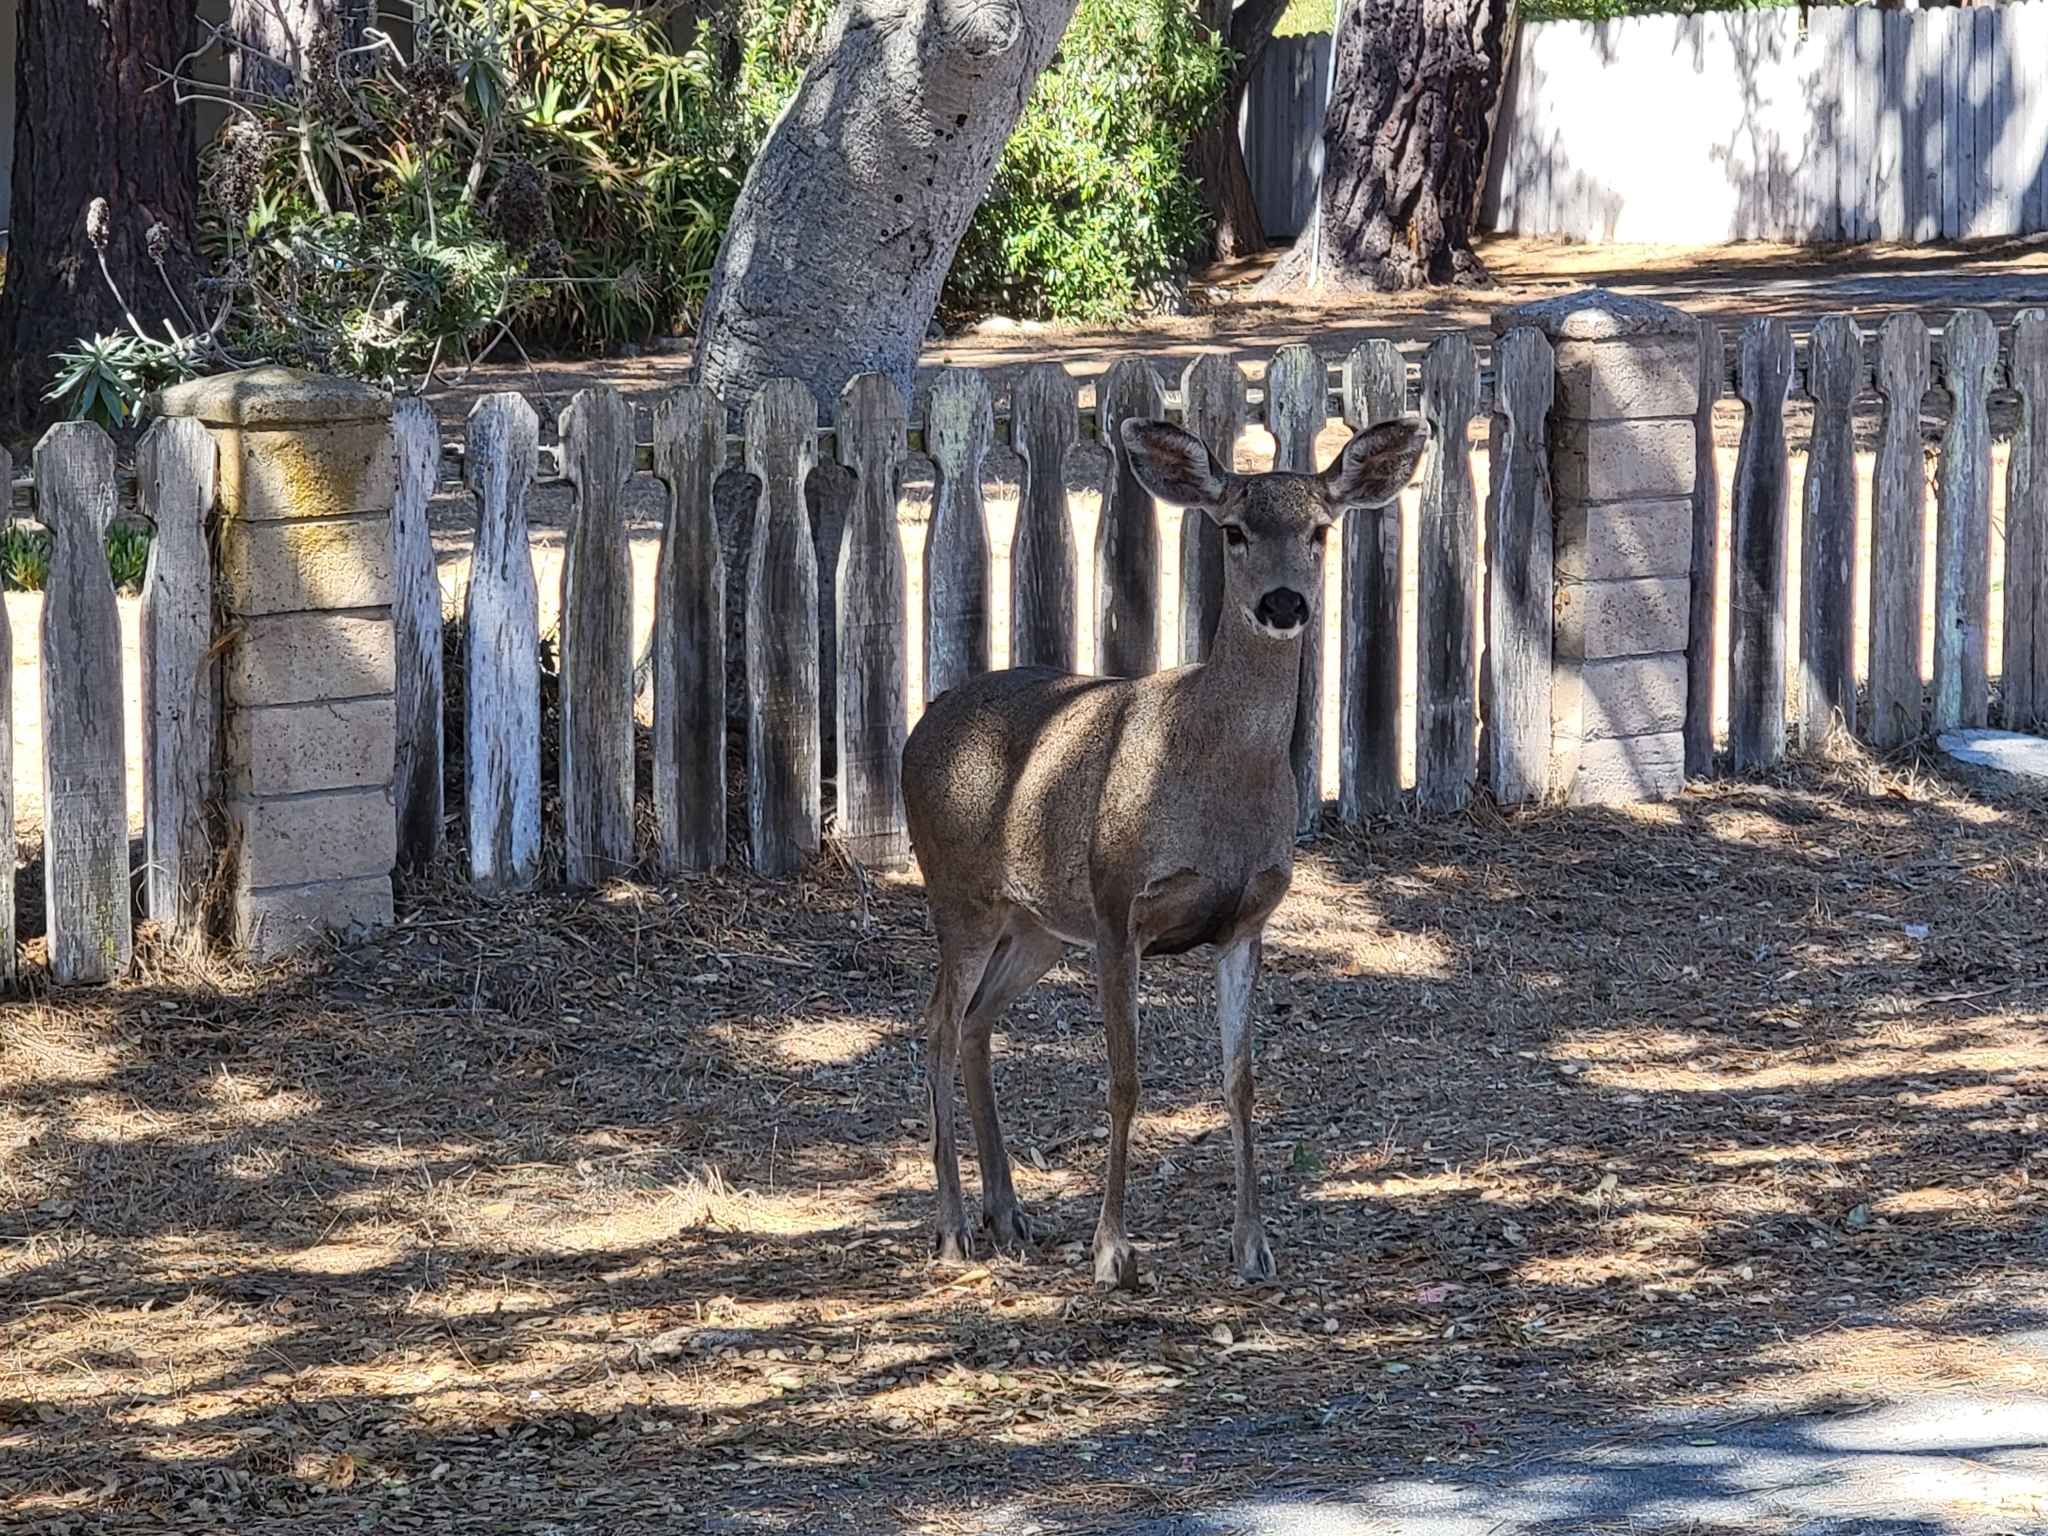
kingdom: Animalia
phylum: Chordata
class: Mammalia
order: Artiodactyla
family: Cervidae
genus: Odocoileus
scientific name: Odocoileus hemionus
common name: Mule deer
